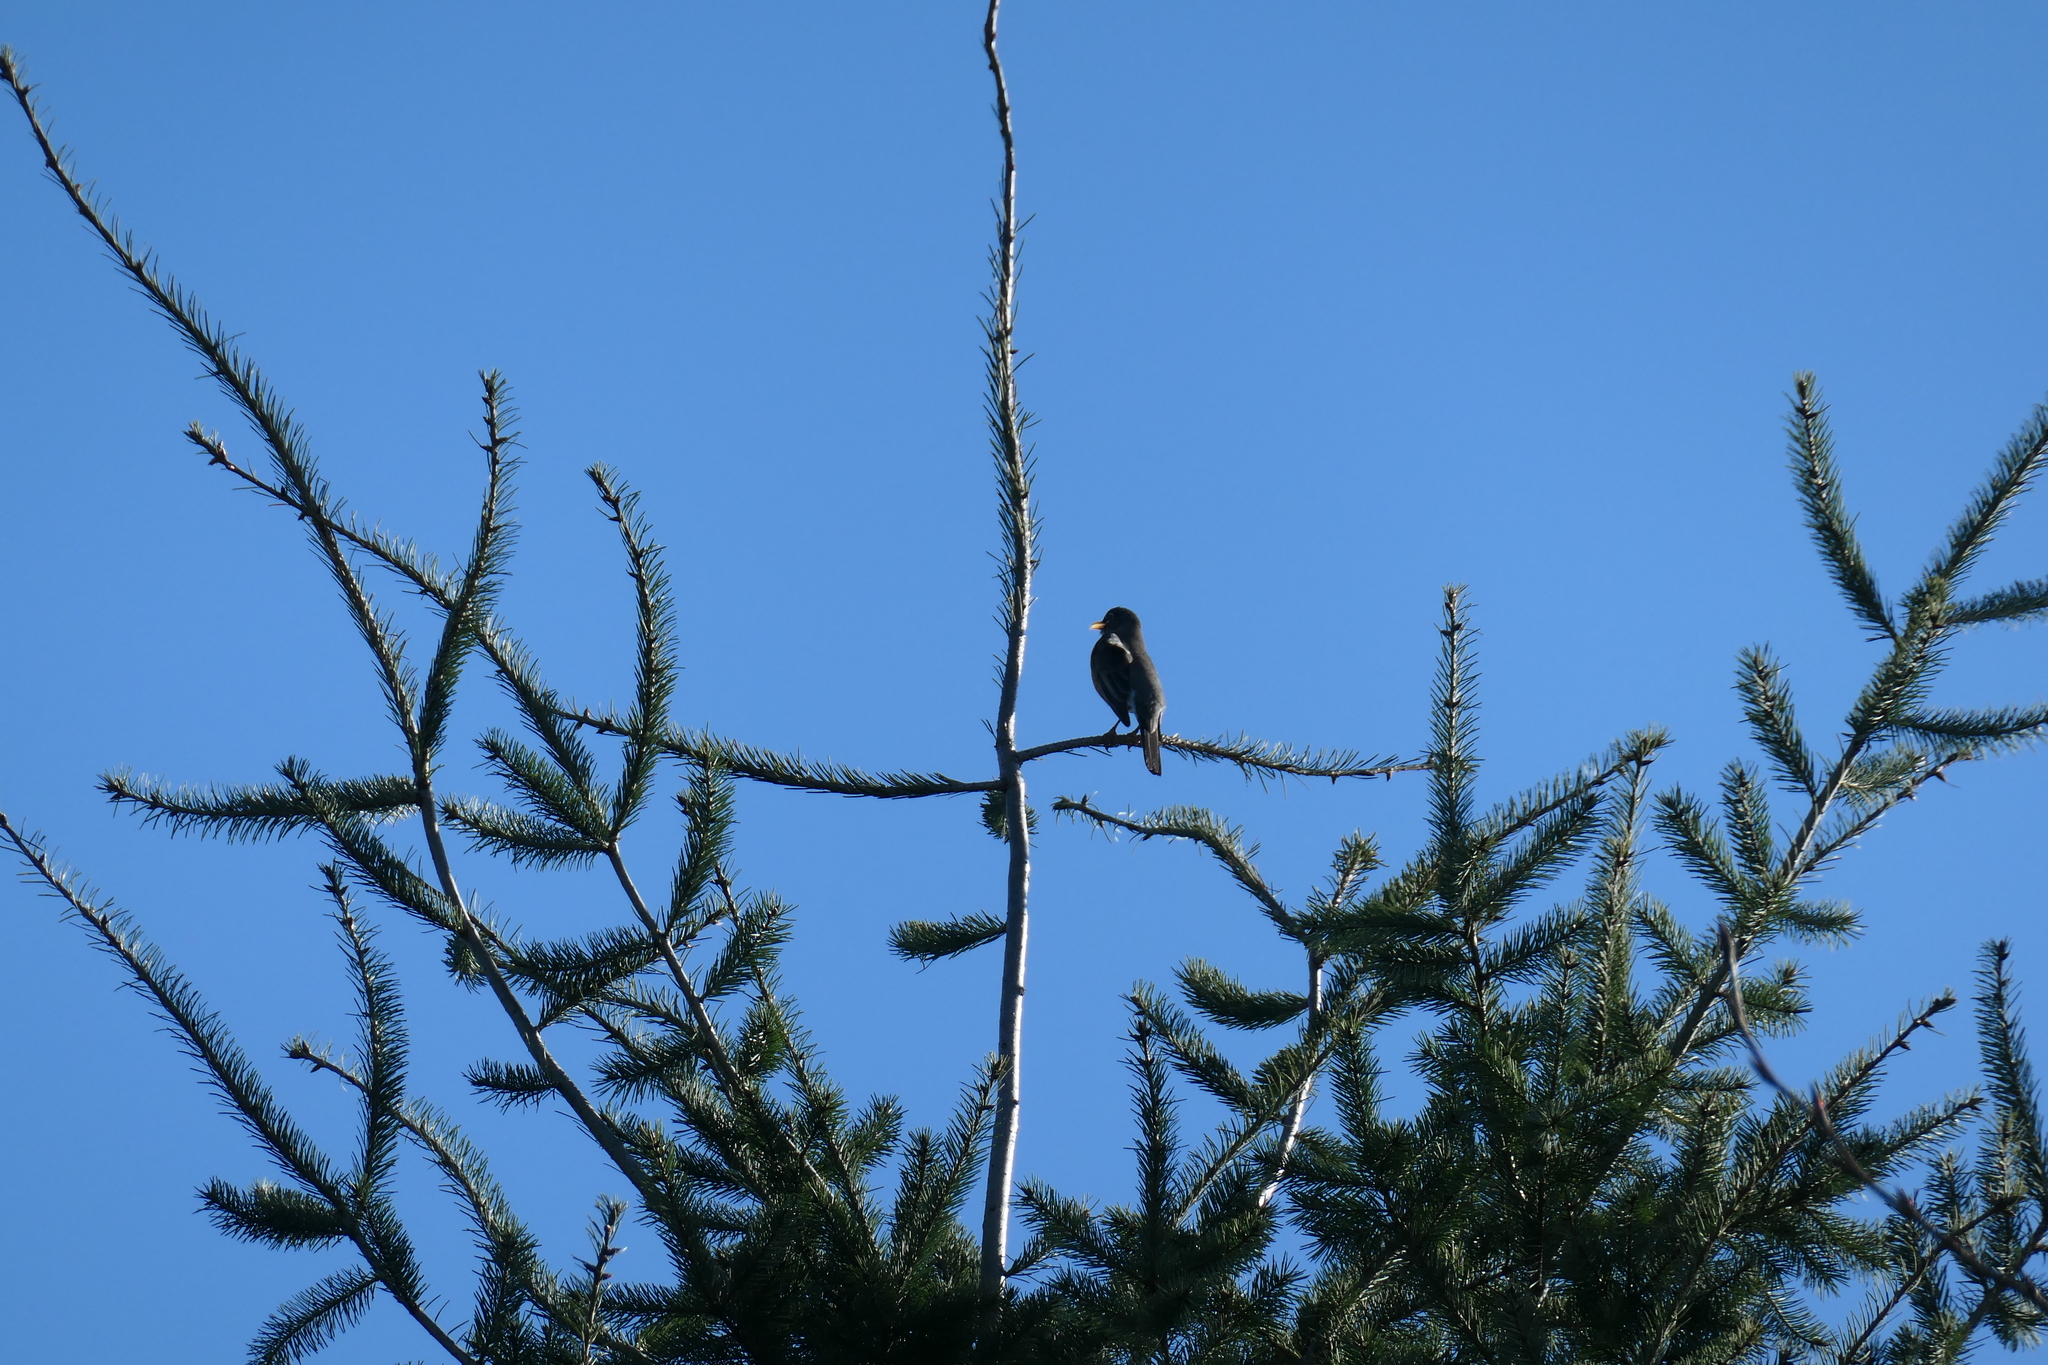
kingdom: Animalia
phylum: Chordata
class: Aves
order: Passeriformes
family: Turdidae
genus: Turdus
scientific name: Turdus migratorius
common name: American robin
